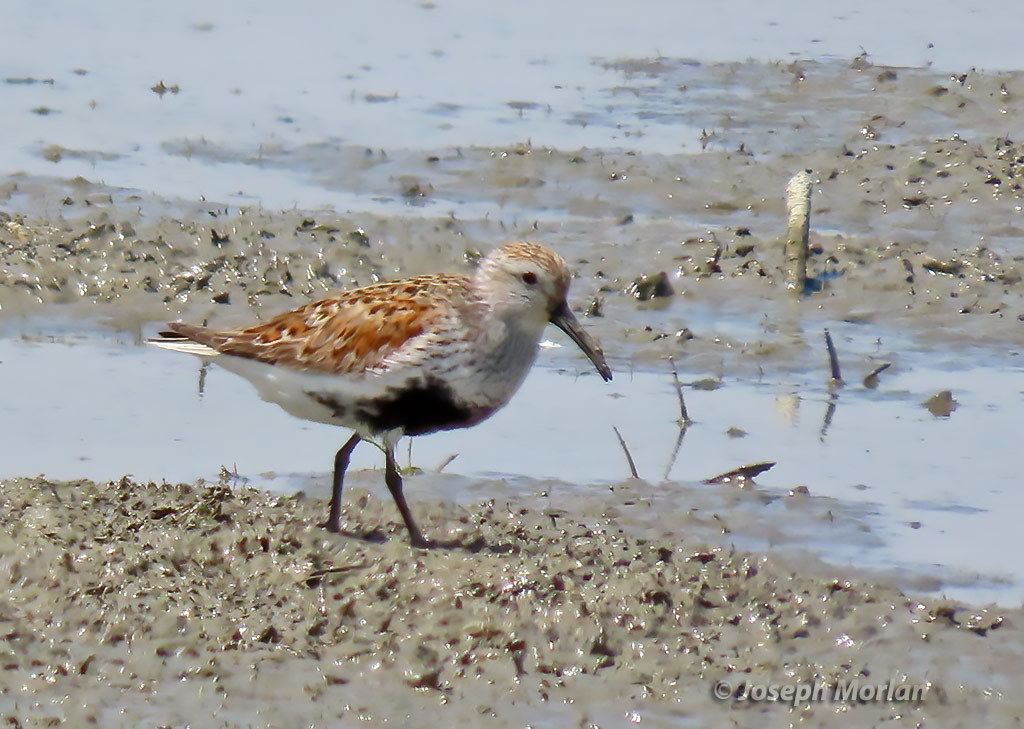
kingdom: Animalia
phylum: Chordata
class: Aves
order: Charadriiformes
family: Scolopacidae
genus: Calidris
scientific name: Calidris alpina
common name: Dunlin
